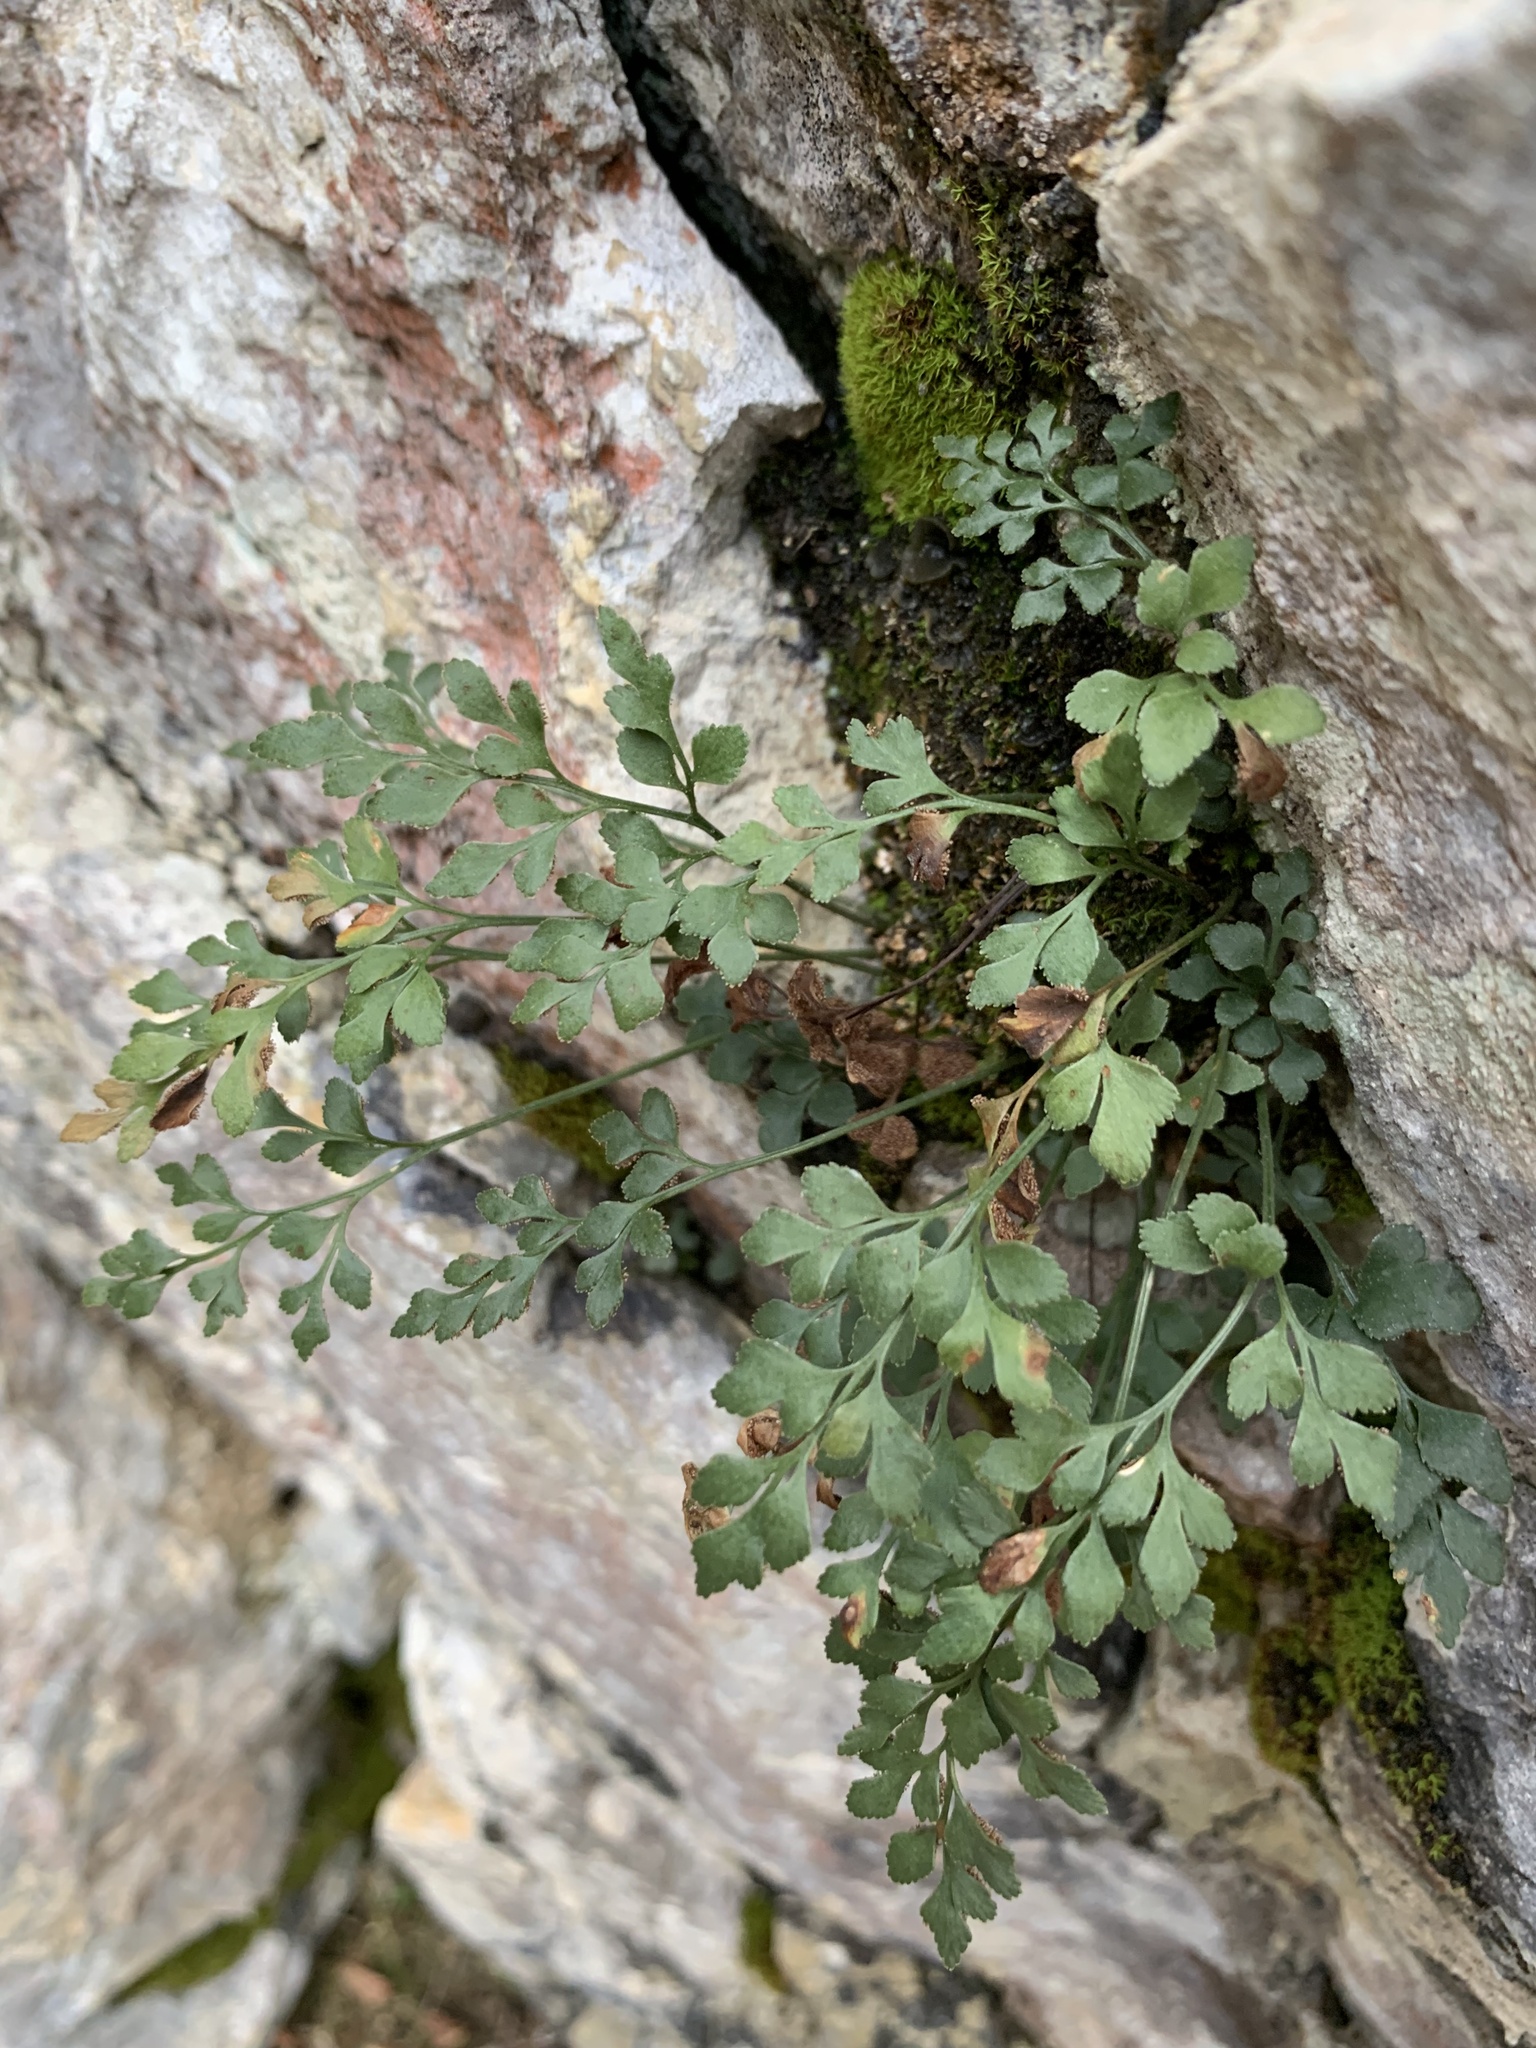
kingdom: Plantae
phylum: Tracheophyta
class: Polypodiopsida
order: Polypodiales
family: Aspleniaceae
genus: Asplenium
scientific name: Asplenium ruta-muraria
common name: Wall-rue
